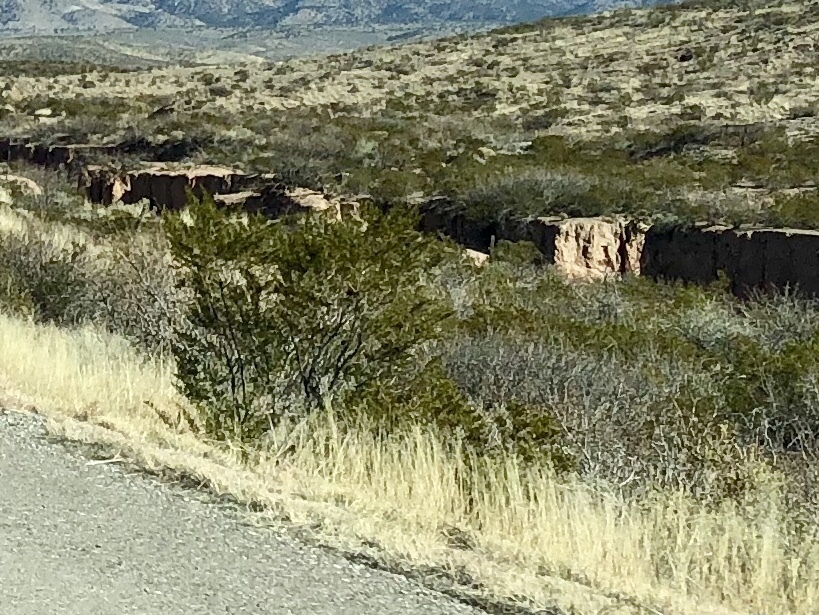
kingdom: Plantae
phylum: Tracheophyta
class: Magnoliopsida
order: Zygophyllales
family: Zygophyllaceae
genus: Larrea
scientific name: Larrea tridentata
